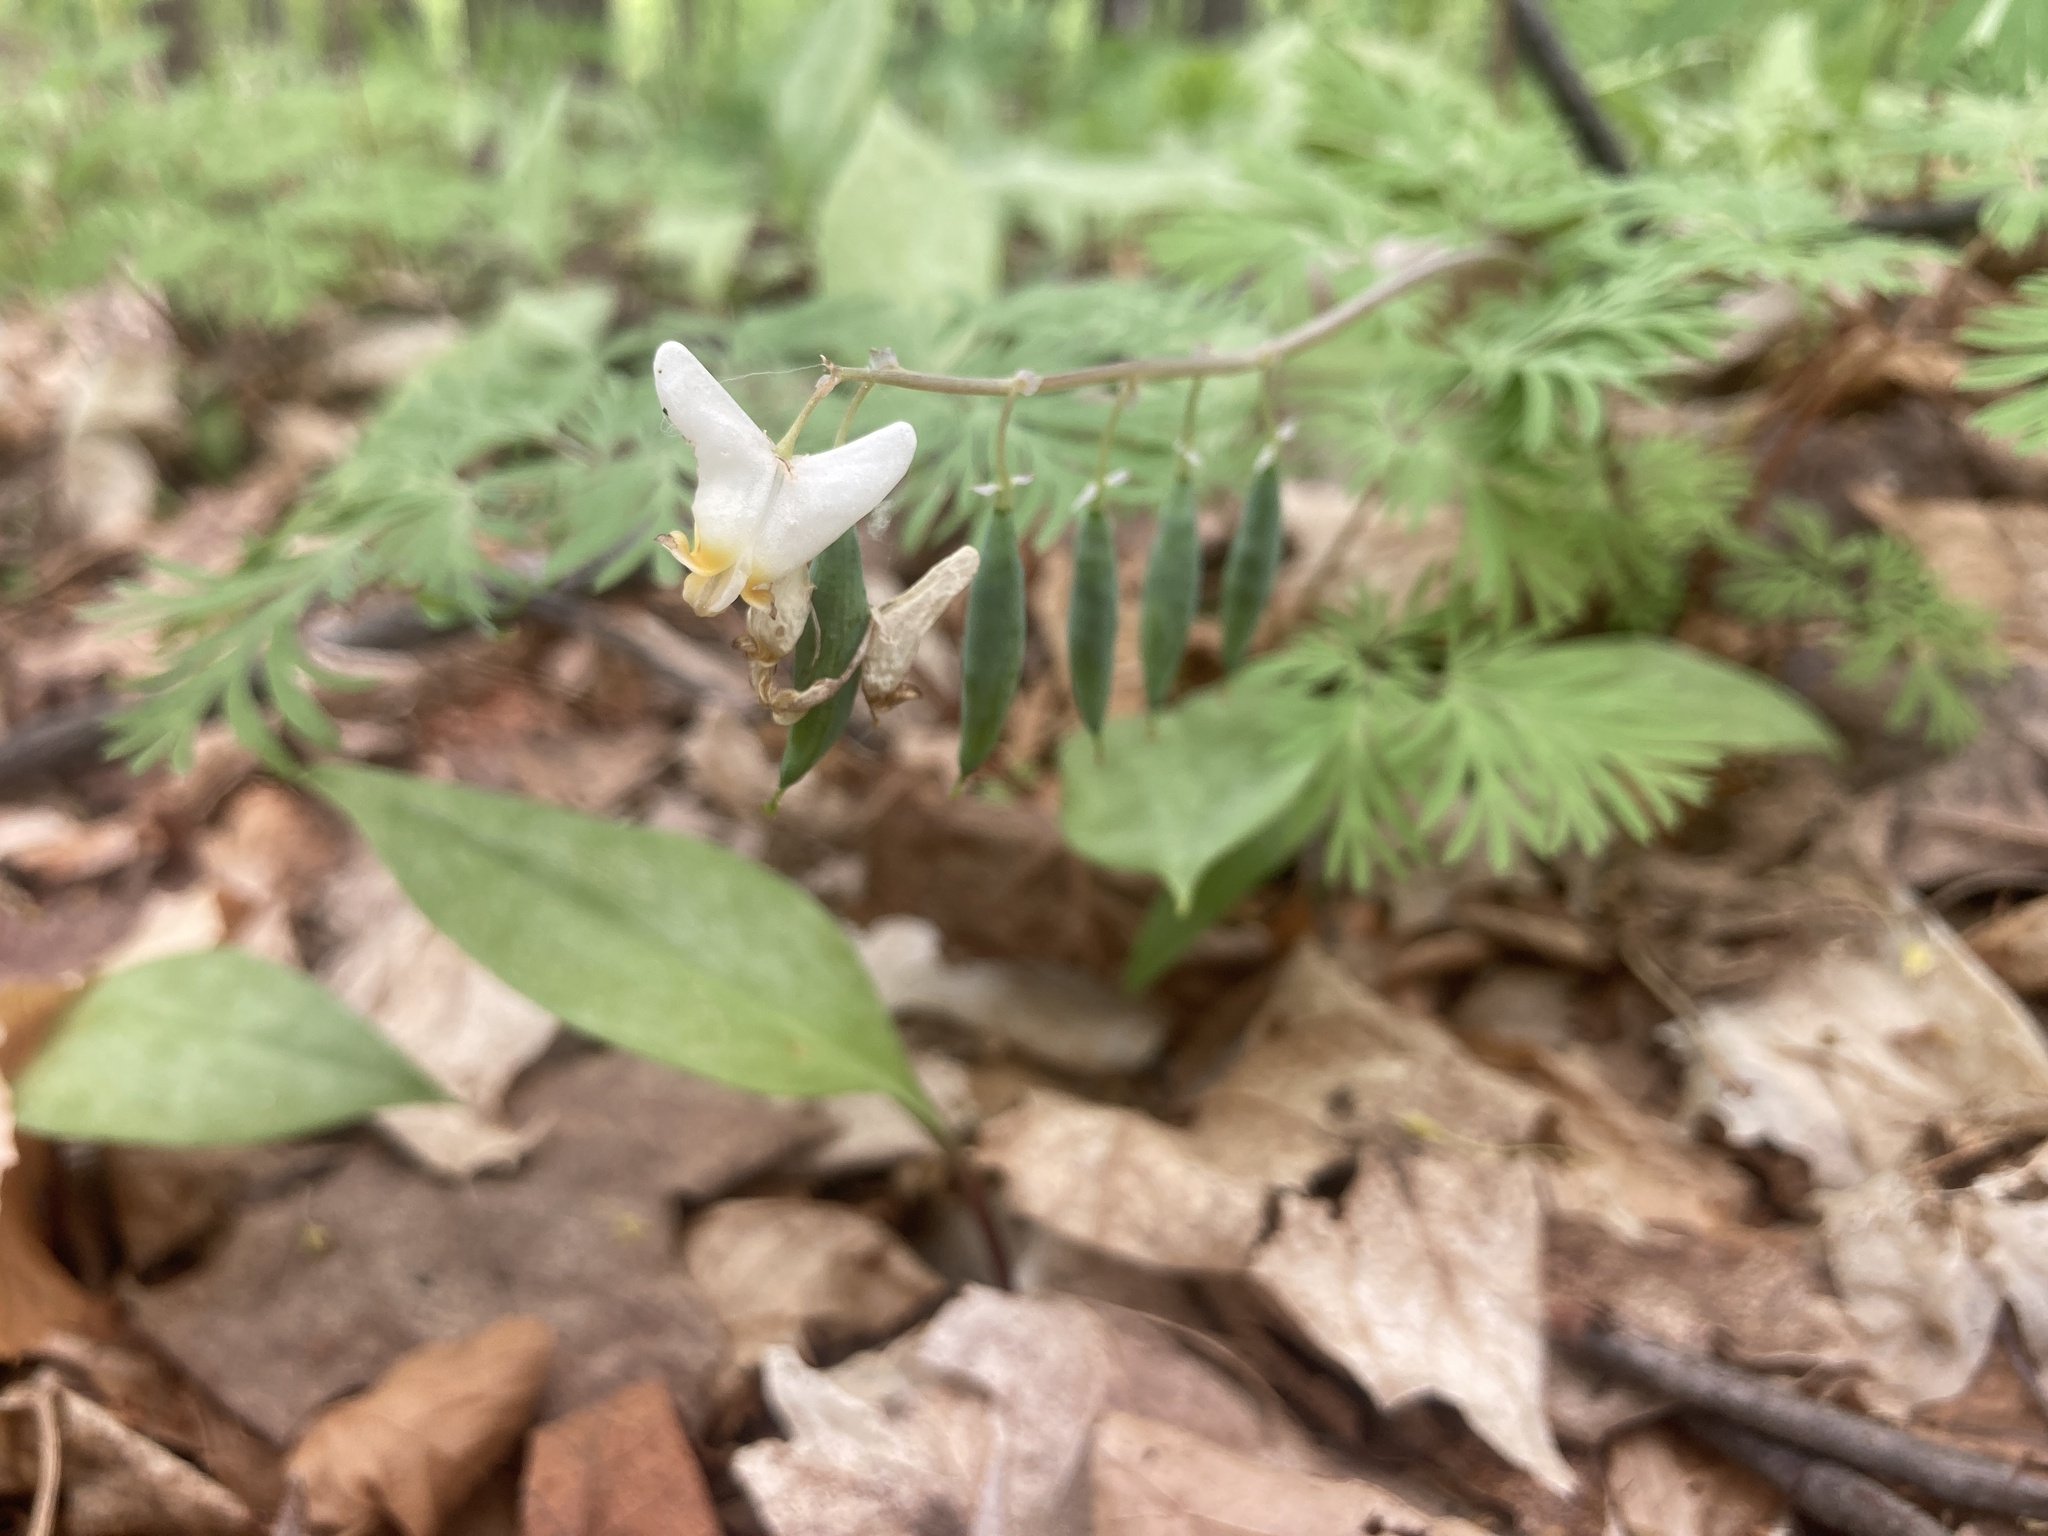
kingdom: Plantae
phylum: Tracheophyta
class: Magnoliopsida
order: Ranunculales
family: Papaveraceae
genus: Dicentra
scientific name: Dicentra cucullaria
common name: Dutchman's breeches
